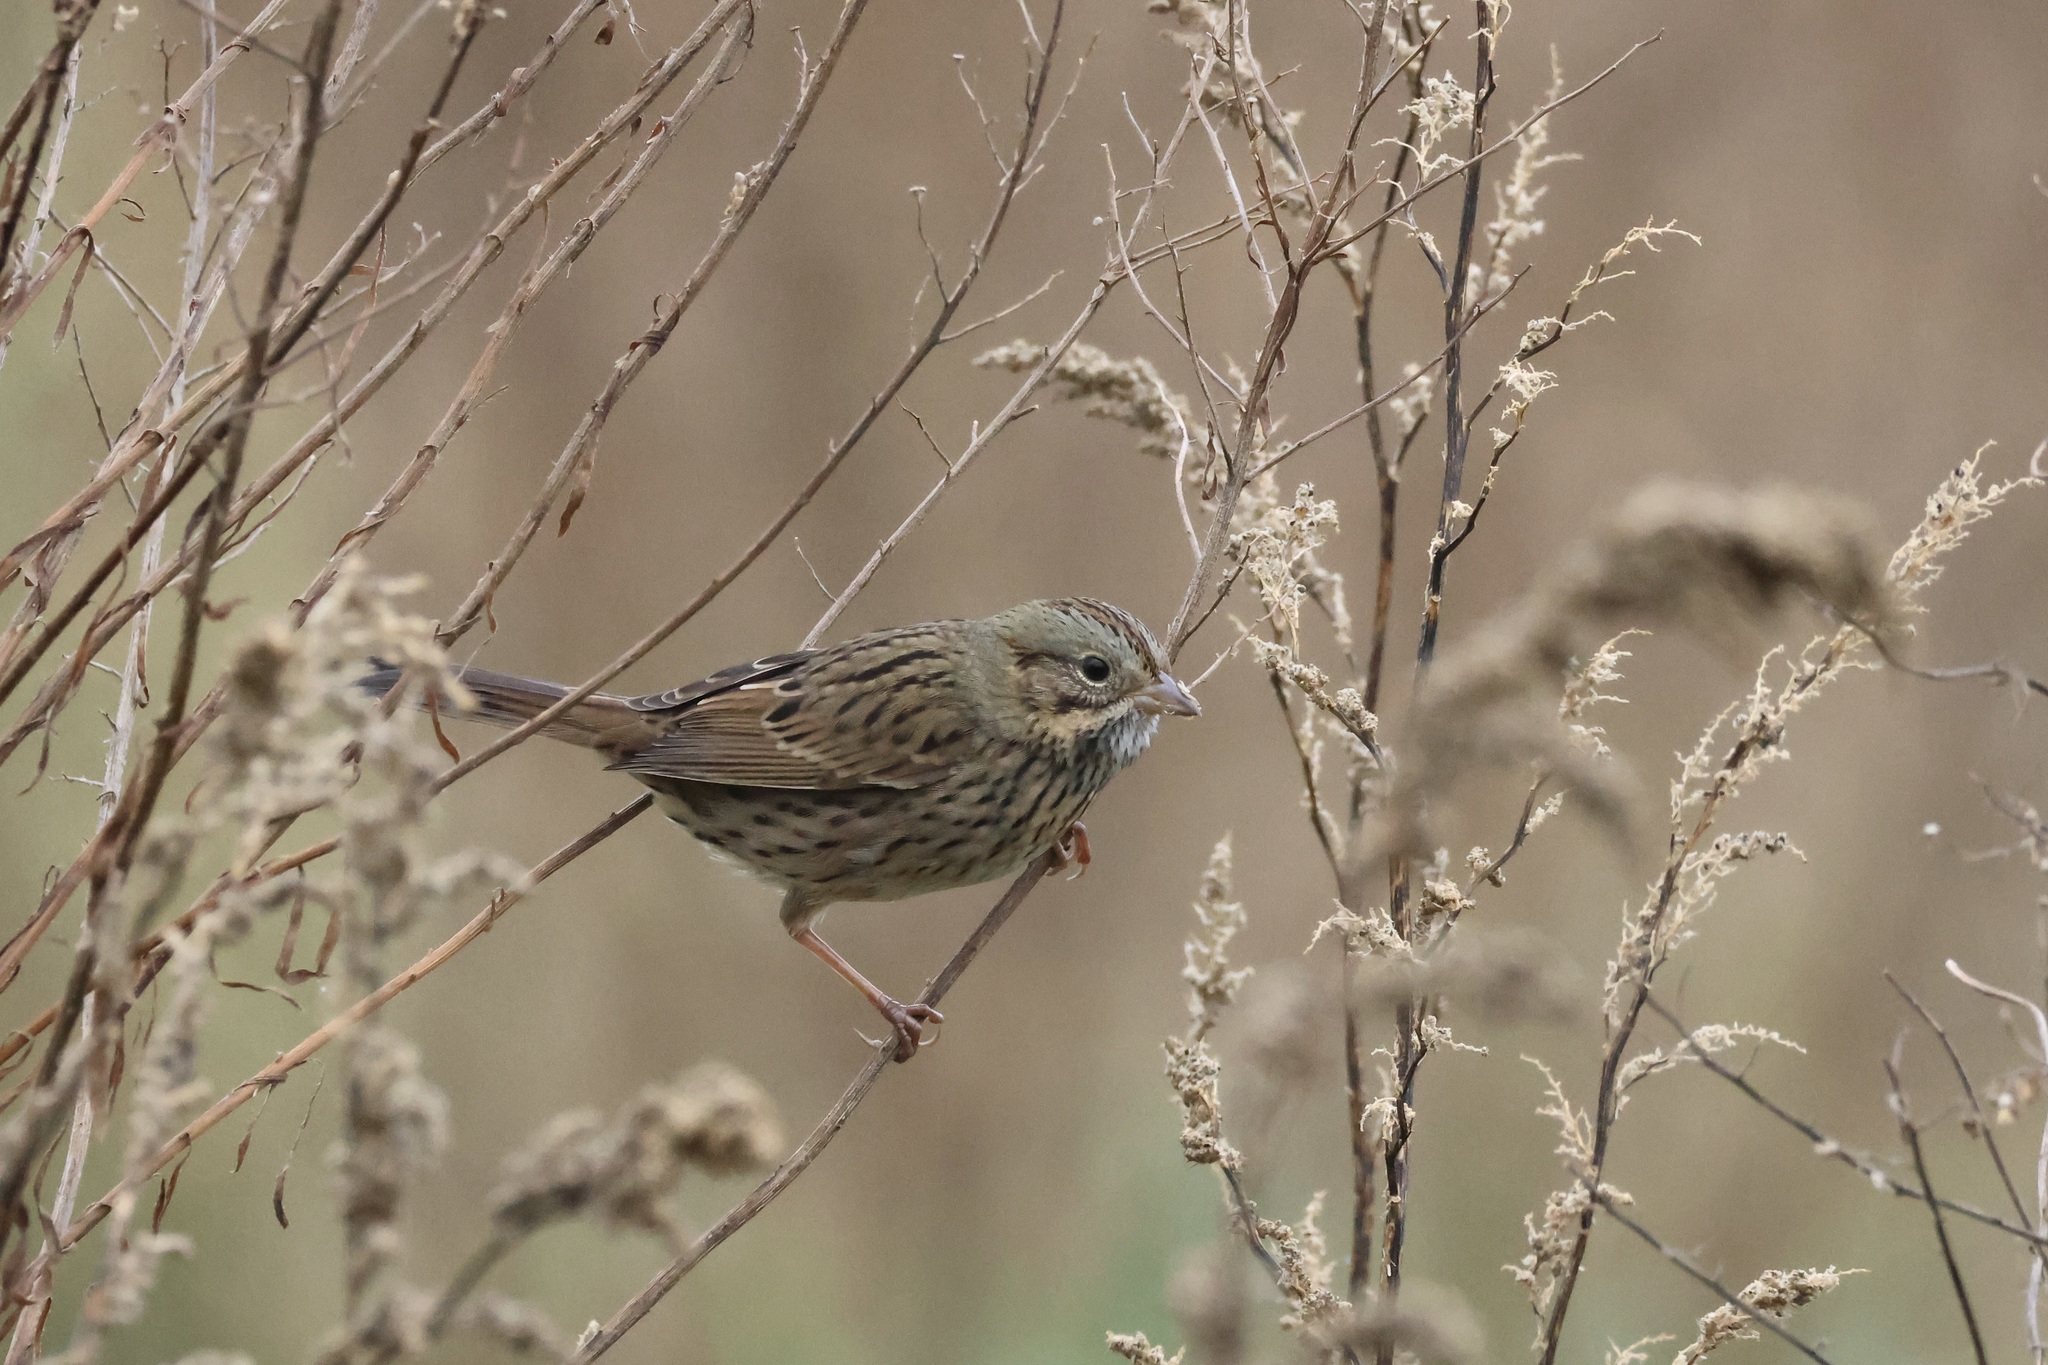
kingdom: Animalia
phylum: Chordata
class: Aves
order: Passeriformes
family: Passerellidae
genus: Melospiza
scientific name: Melospiza lincolnii
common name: Lincoln's sparrow
